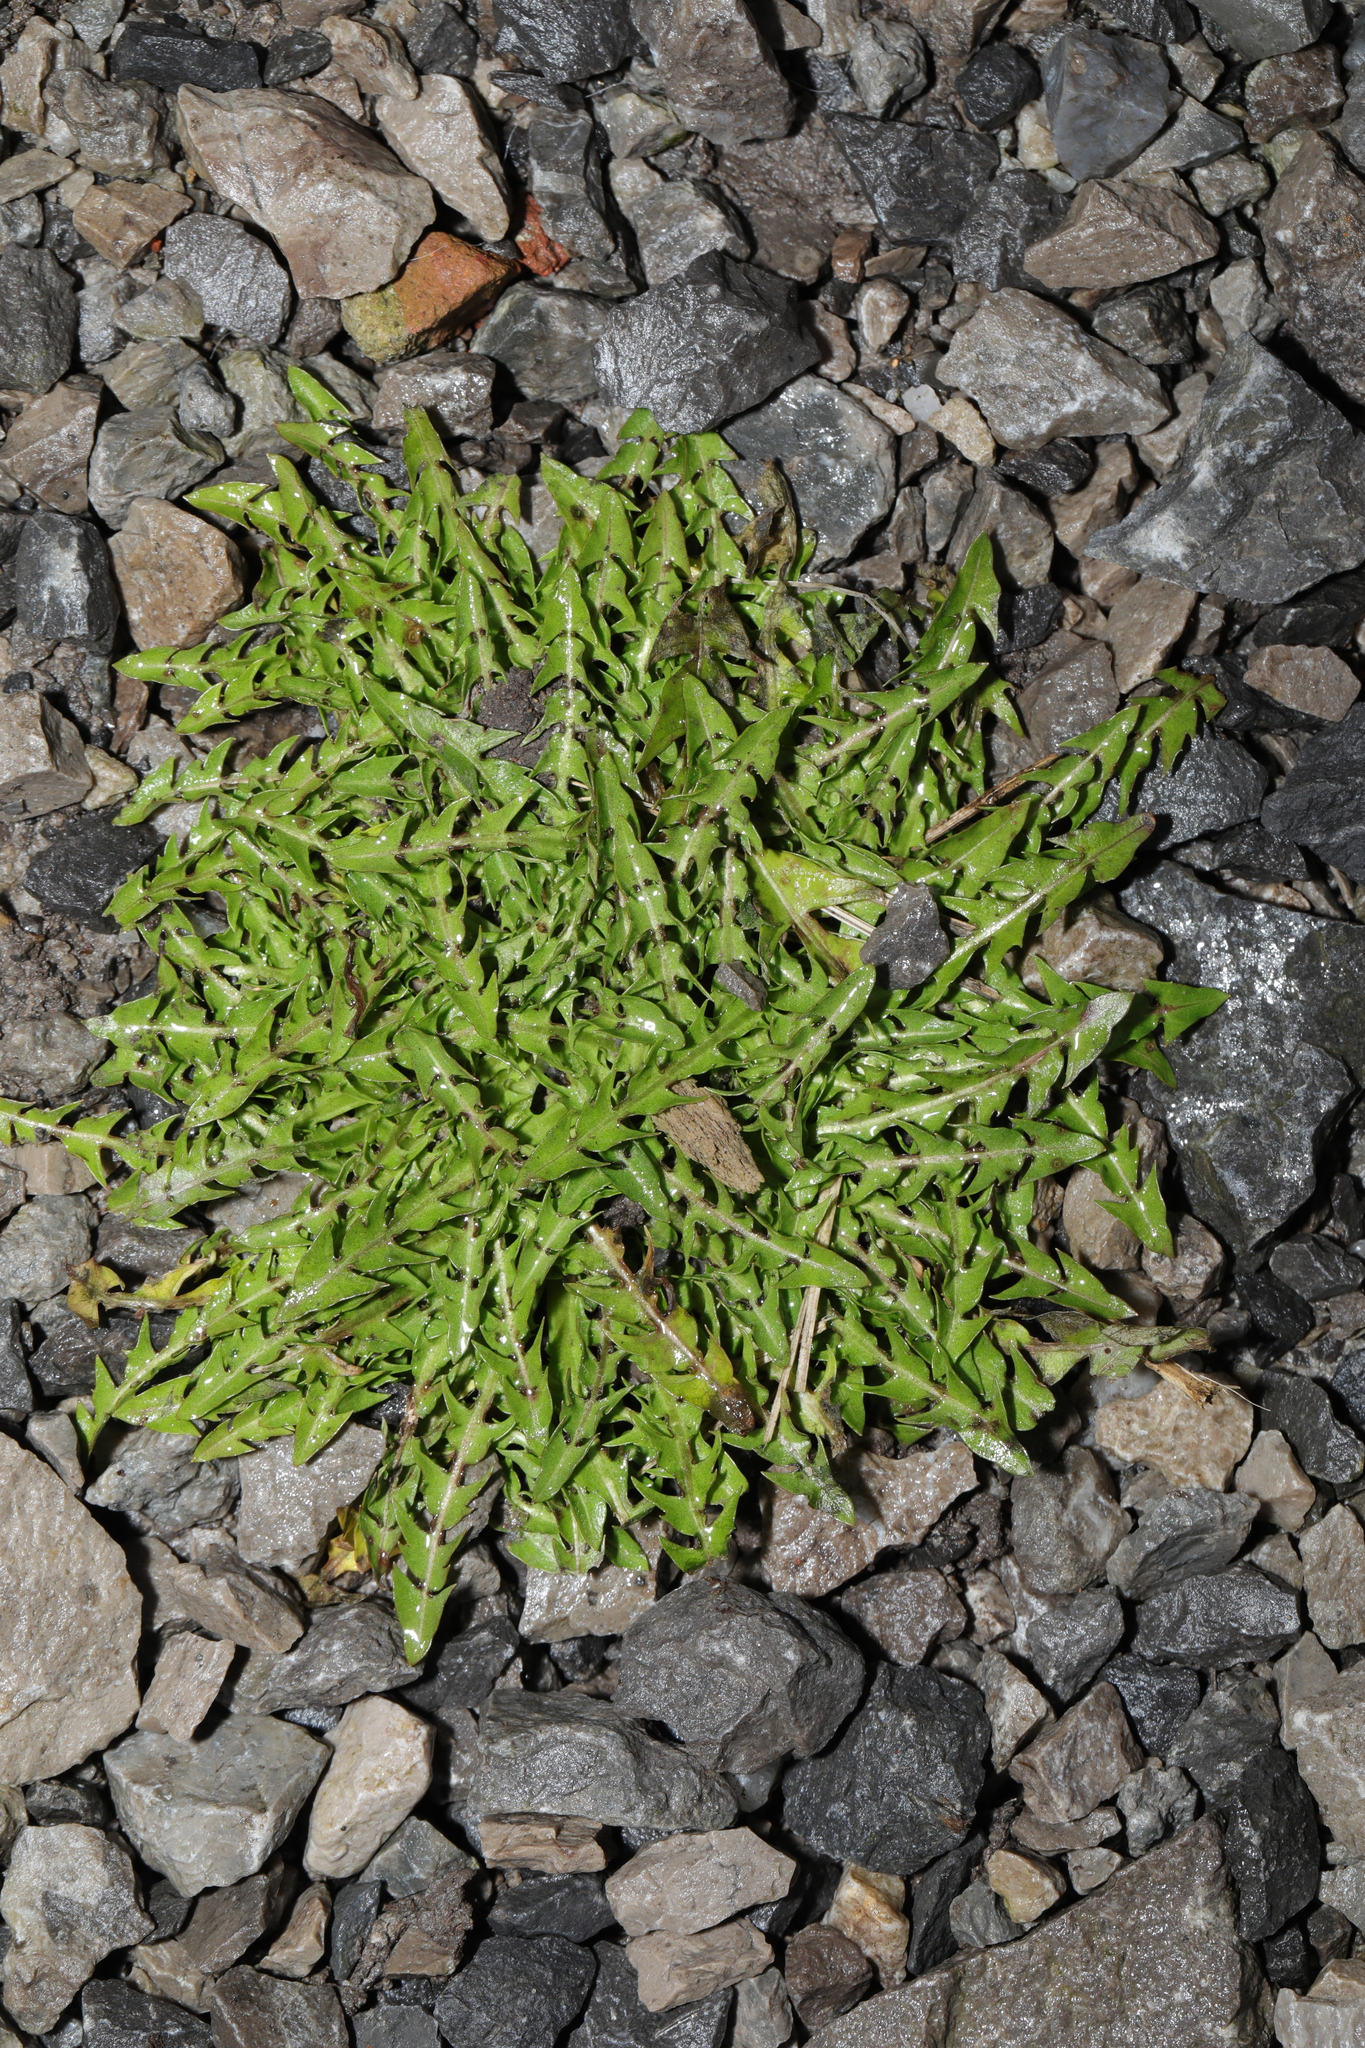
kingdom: Plantae
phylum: Tracheophyta
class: Magnoliopsida
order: Asterales
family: Asteraceae
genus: Taraxacum
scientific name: Taraxacum officinale
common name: Common dandelion
